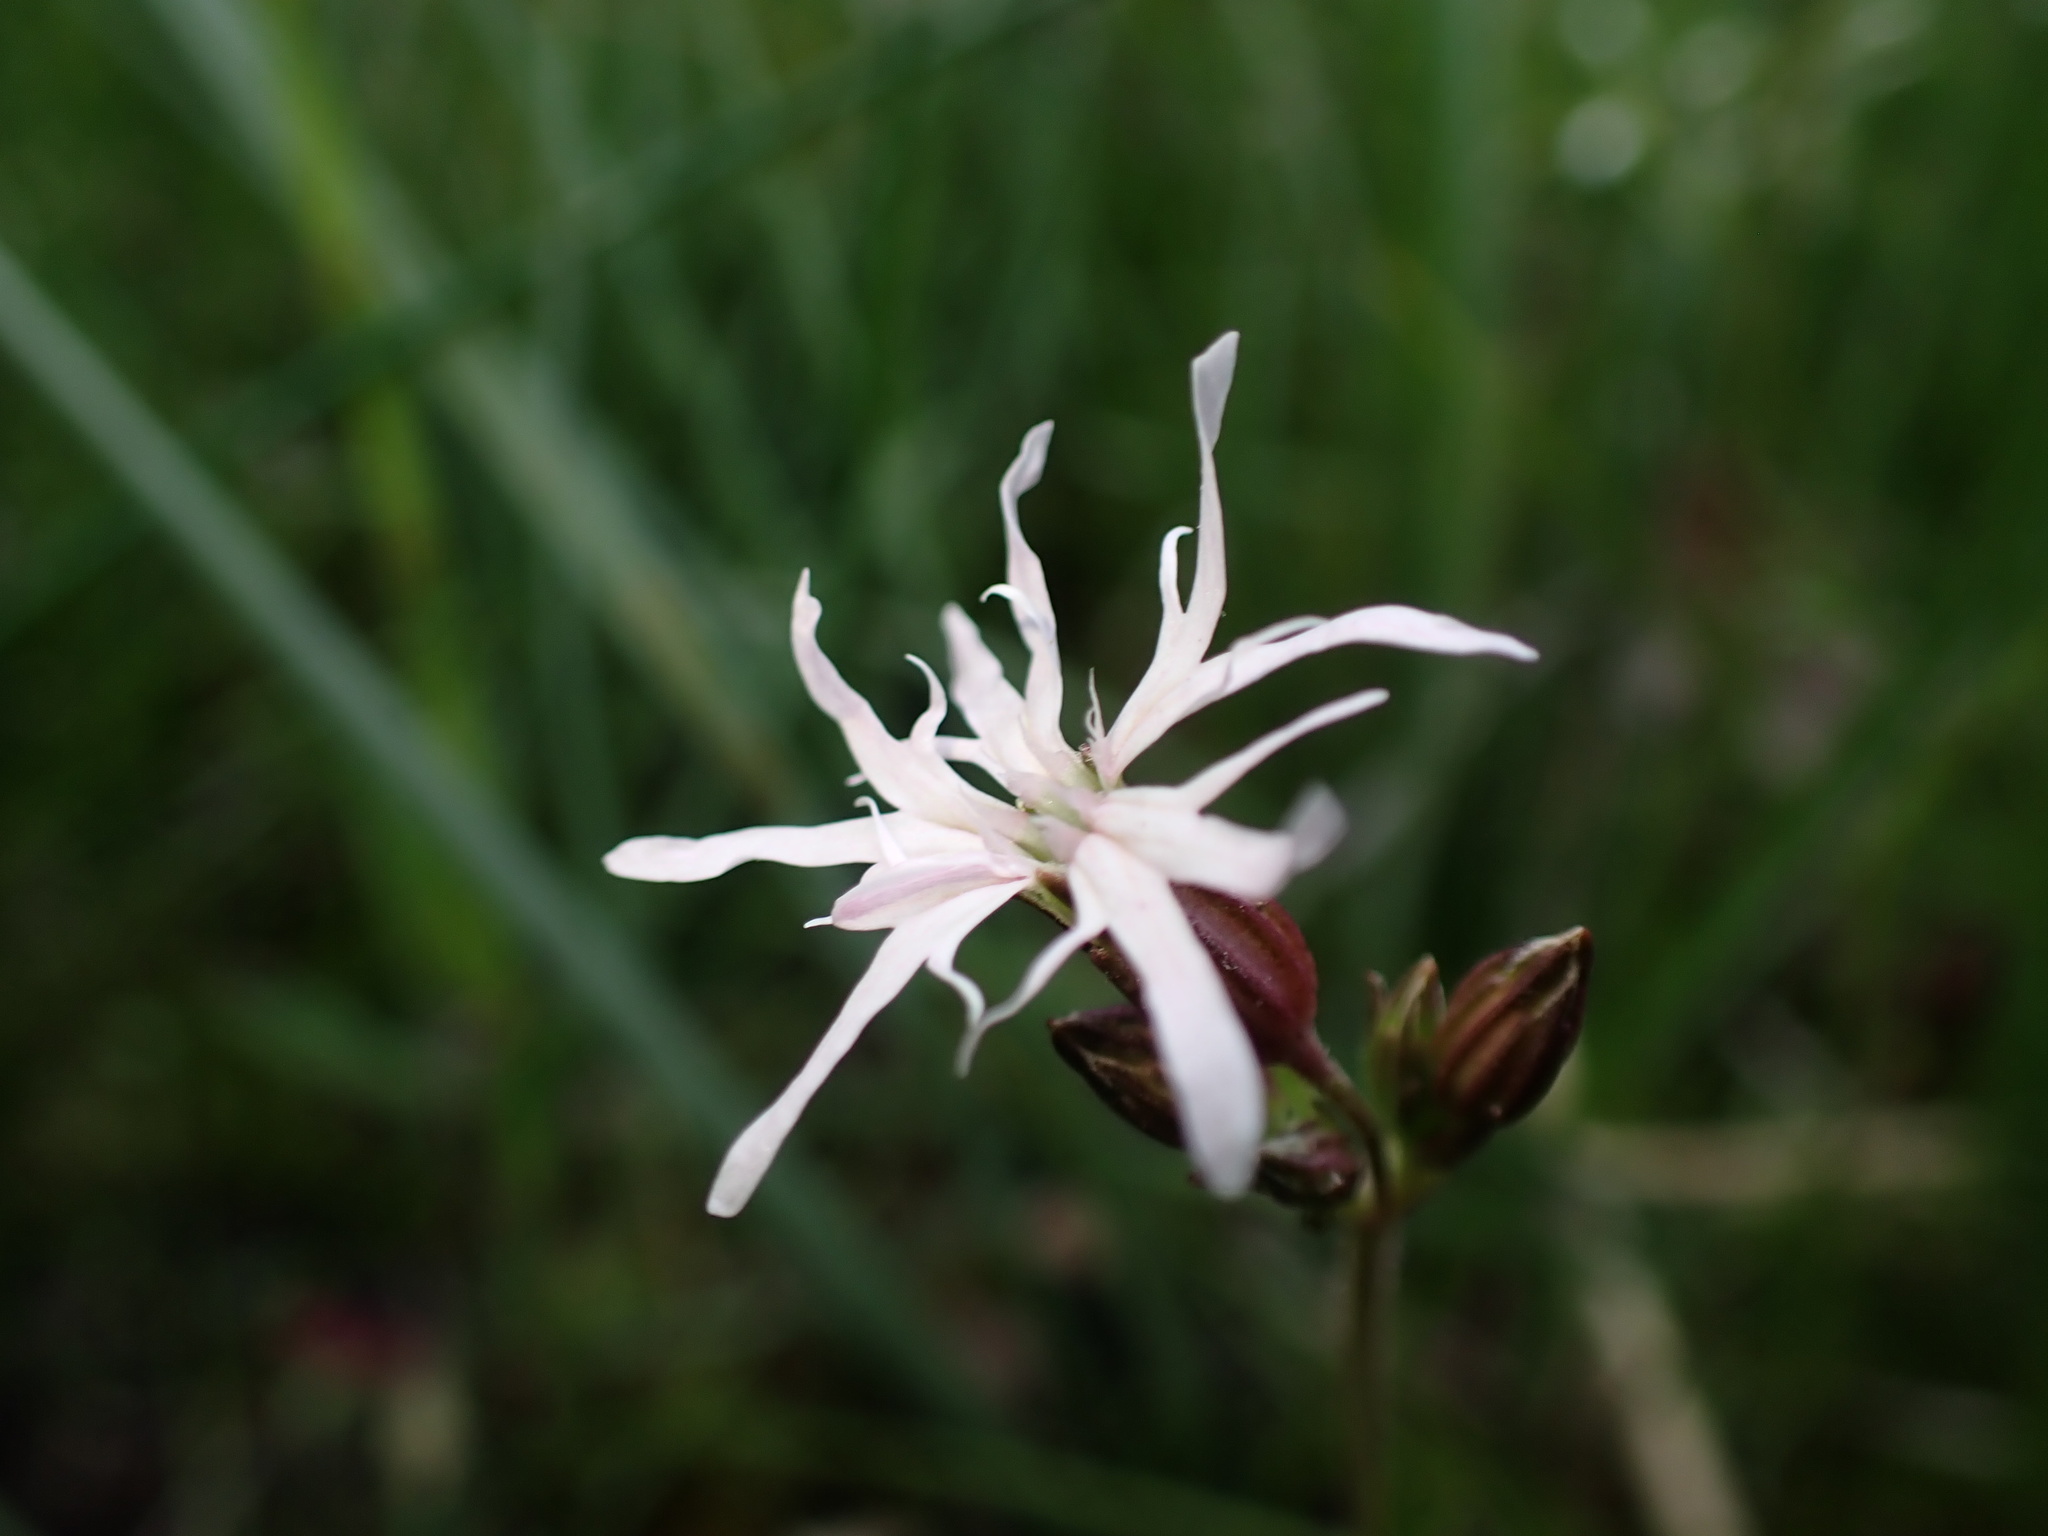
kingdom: Plantae
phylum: Tracheophyta
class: Magnoliopsida
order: Caryophyllales
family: Caryophyllaceae
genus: Silene
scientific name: Silene flos-cuculi
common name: Ragged-robin
